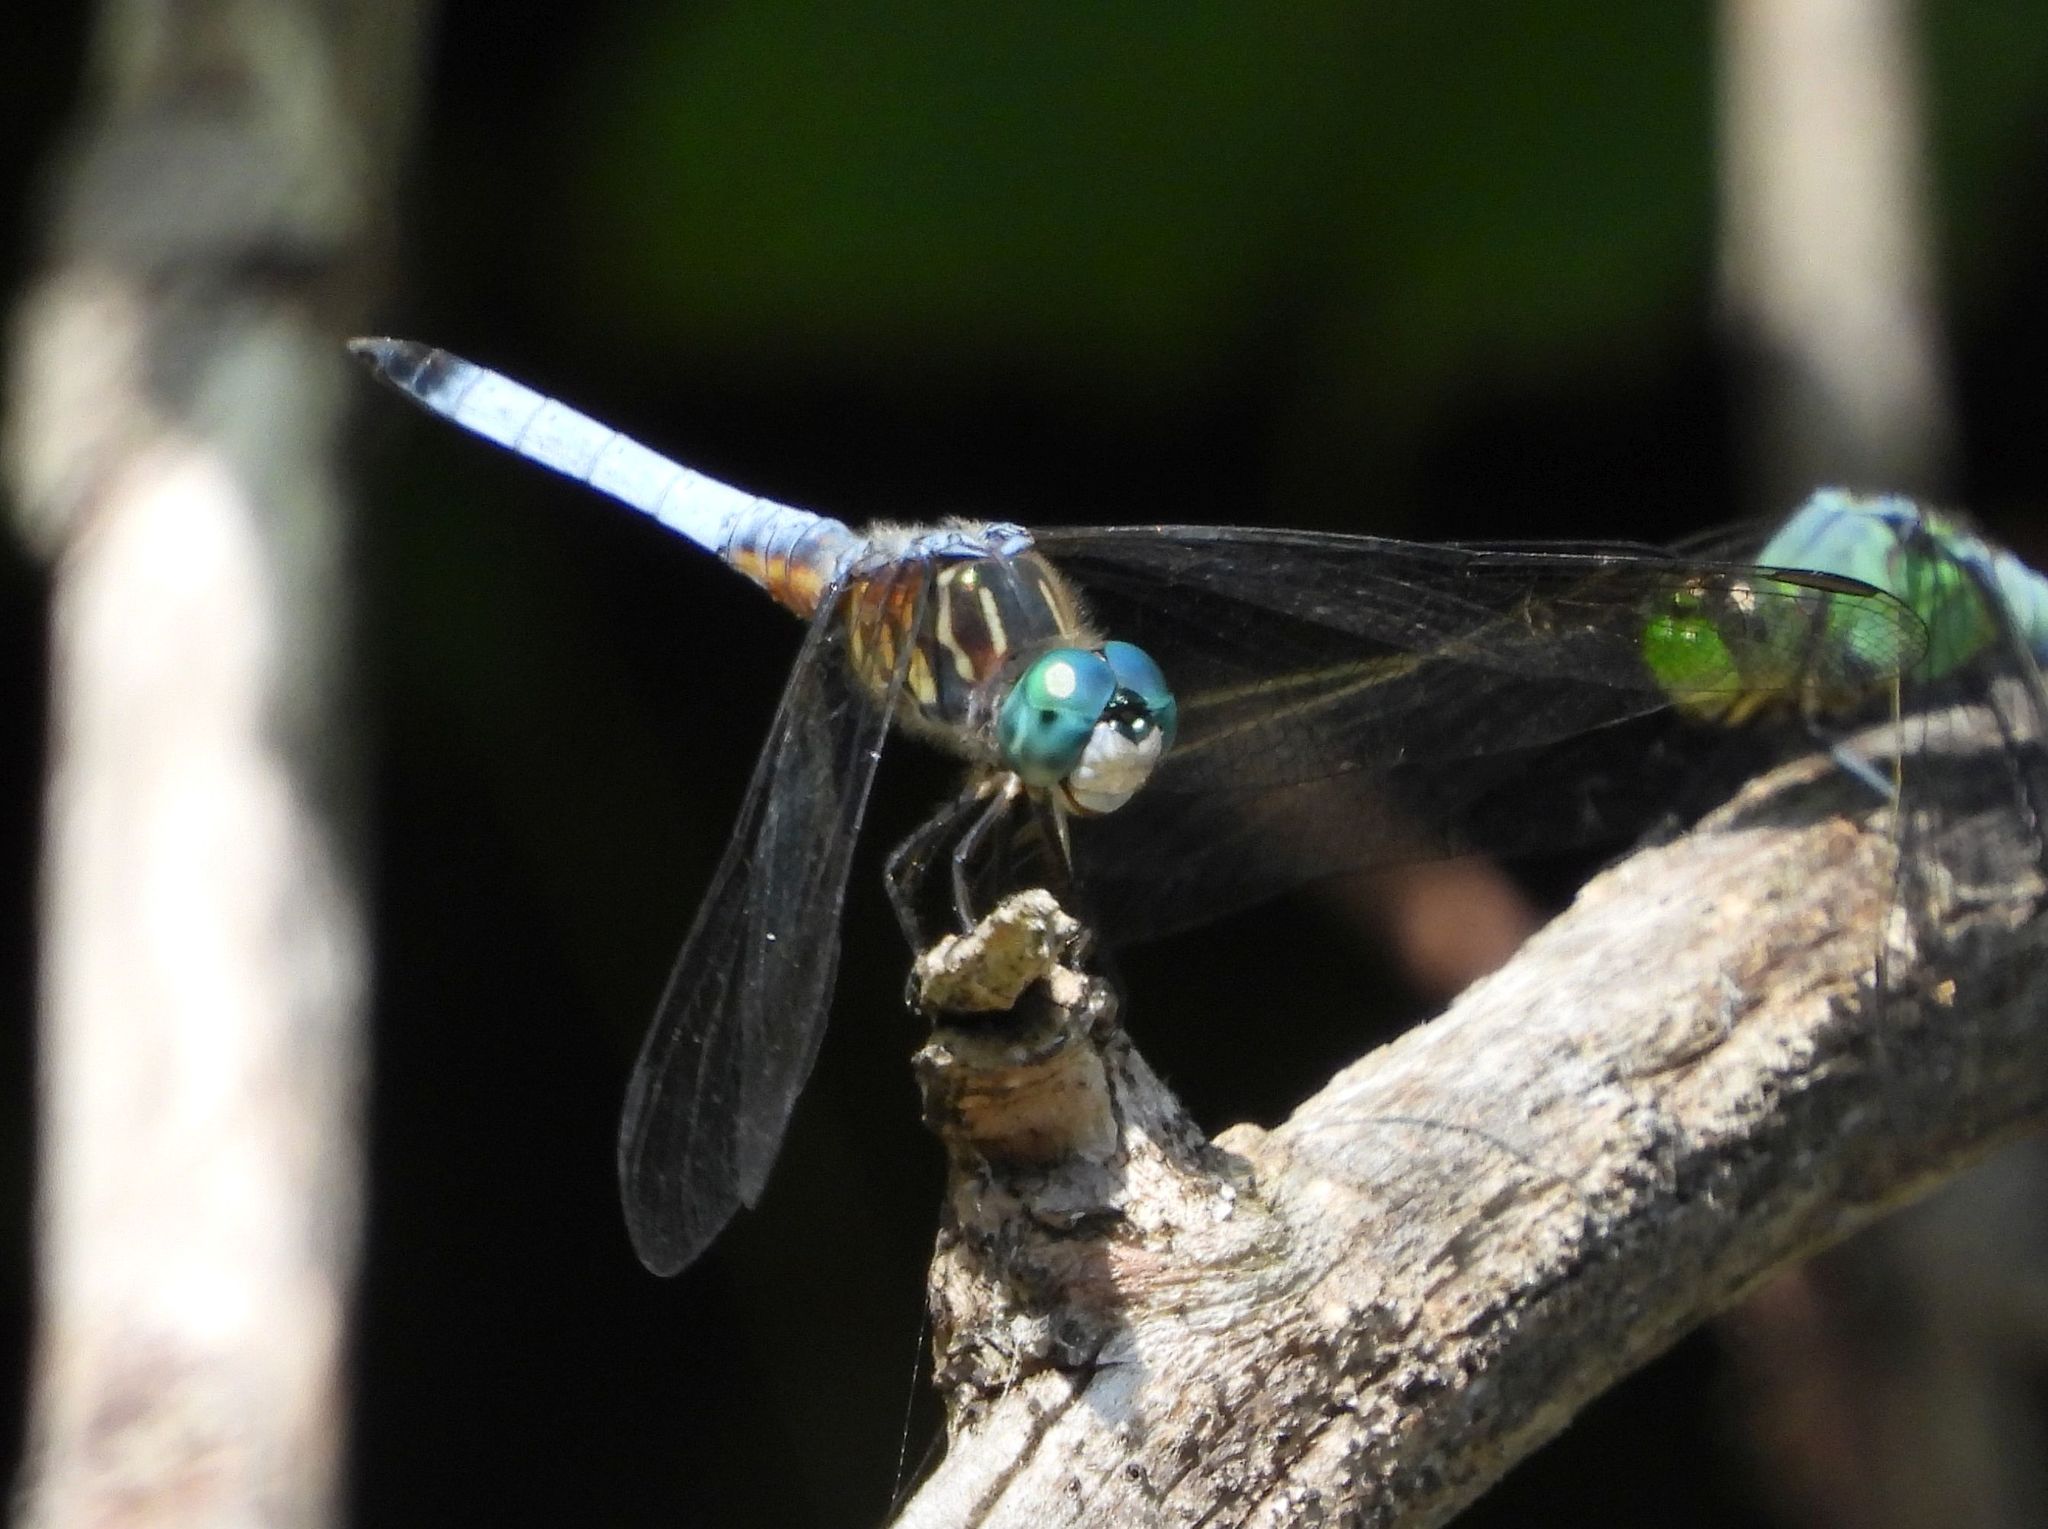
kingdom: Animalia
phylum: Arthropoda
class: Insecta
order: Odonata
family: Libellulidae
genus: Pachydiplax
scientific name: Pachydiplax longipennis
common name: Blue dasher
